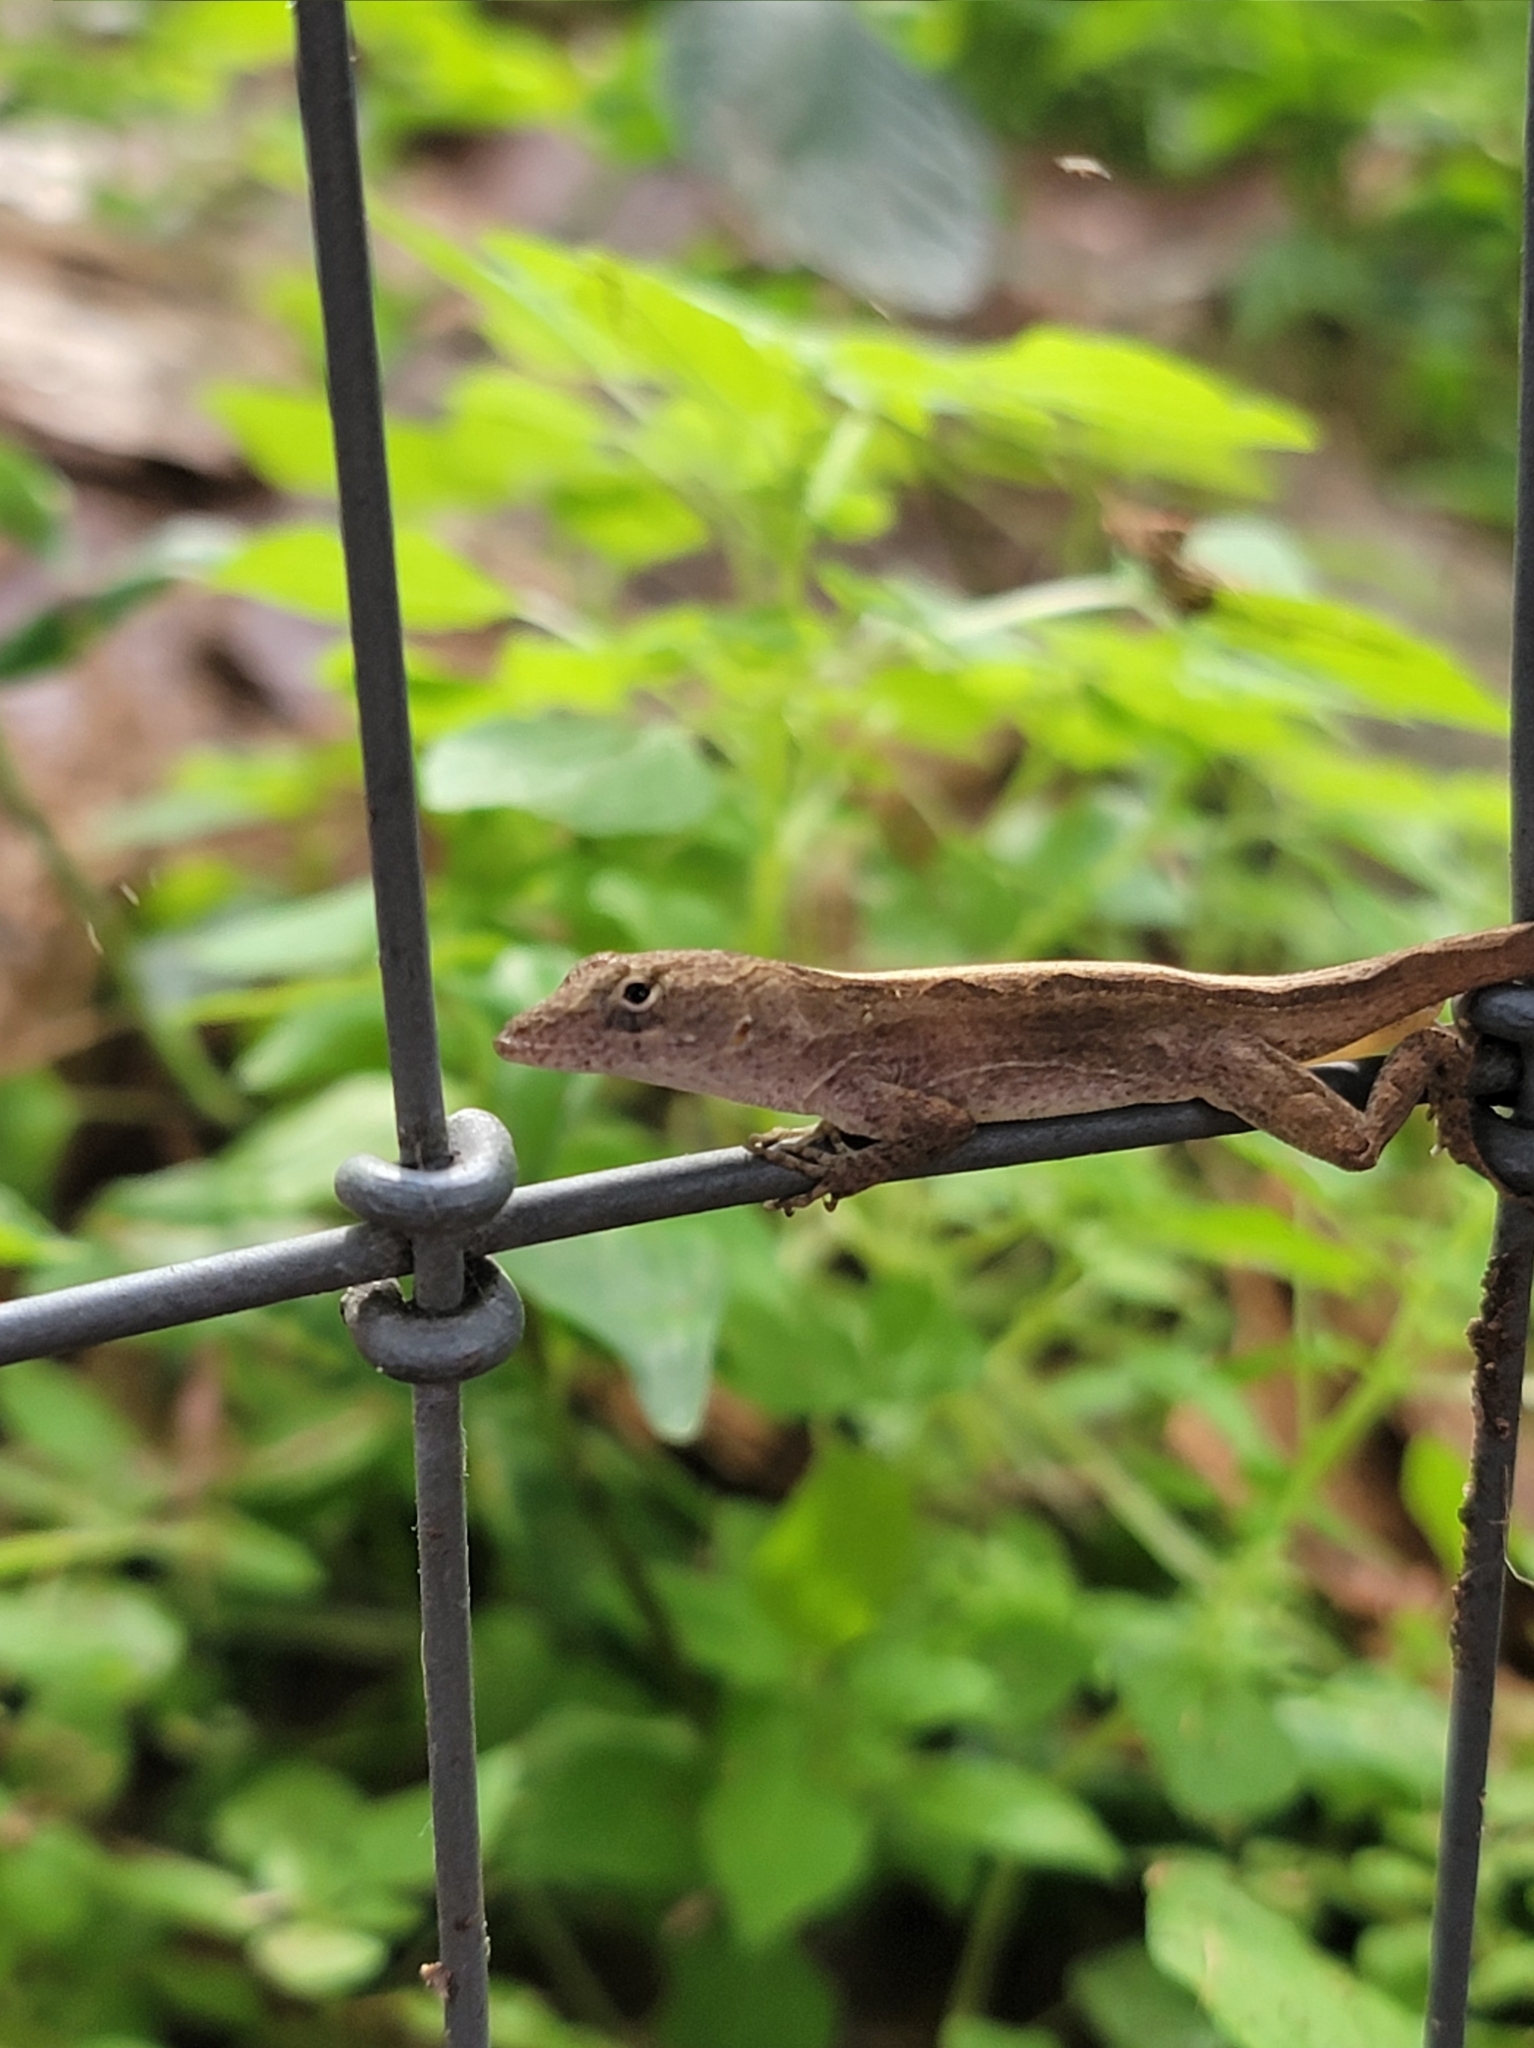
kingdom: Animalia
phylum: Chordata
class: Squamata
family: Dactyloidae
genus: Anolis
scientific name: Anolis sagrei
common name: Brown anole
